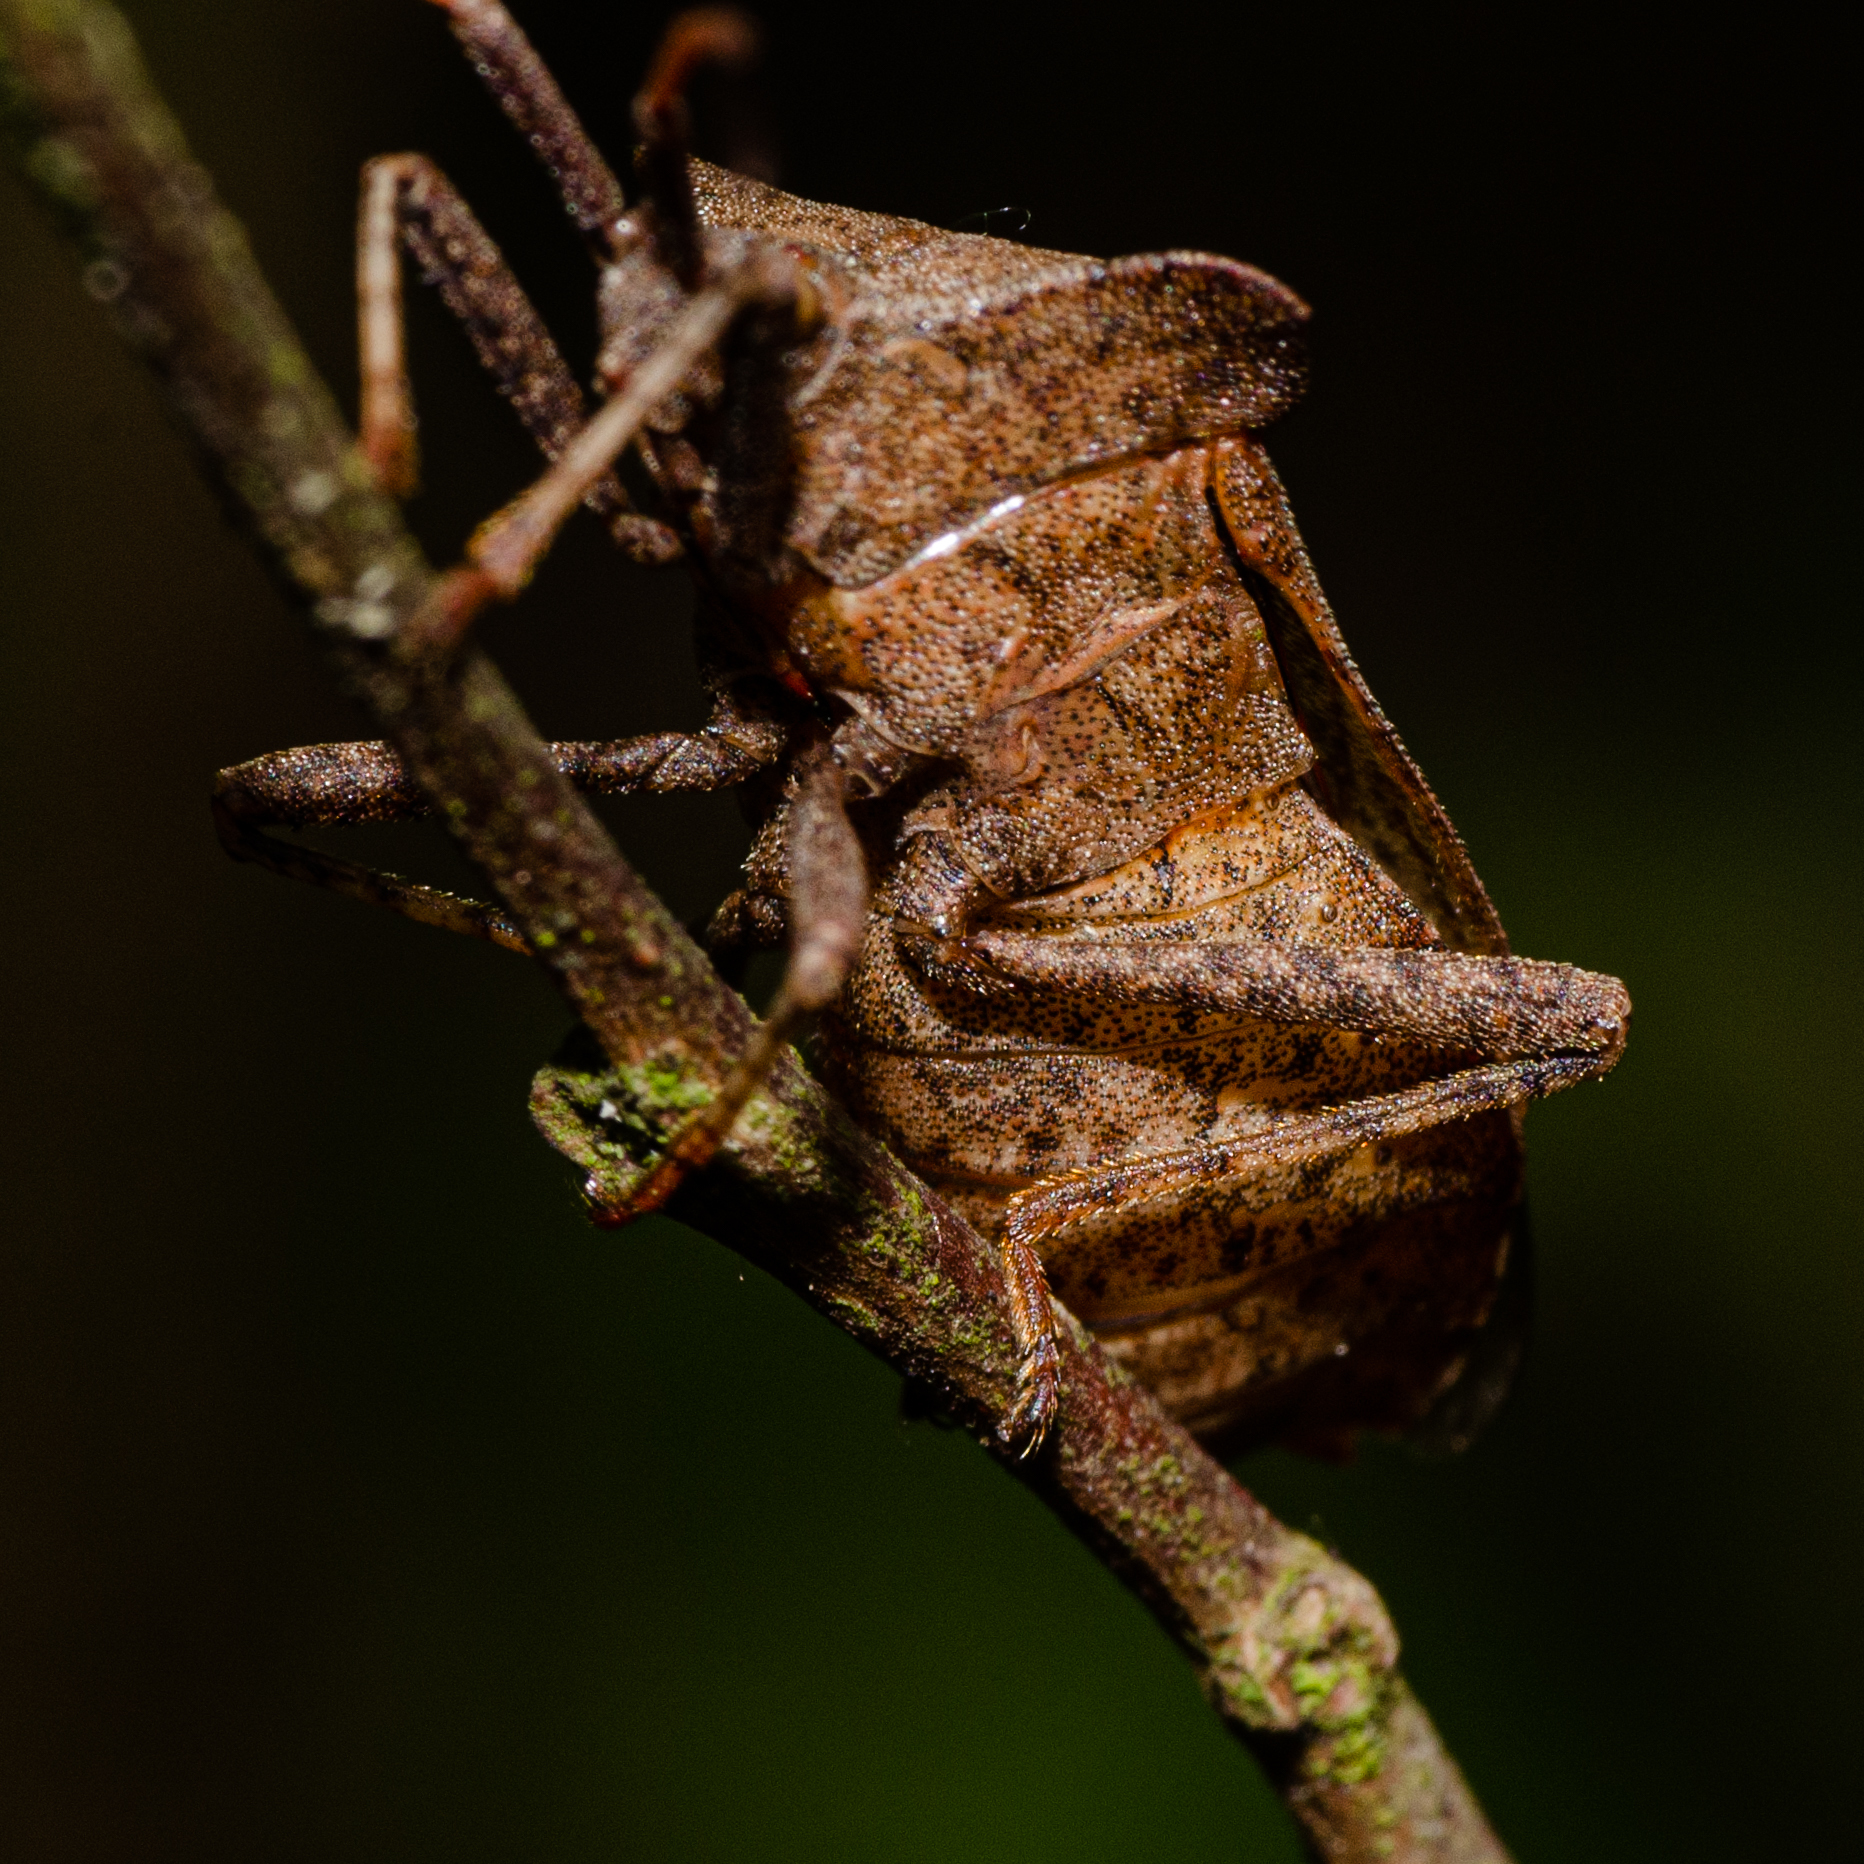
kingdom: Animalia
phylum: Arthropoda
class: Insecta
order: Hemiptera
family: Coreidae
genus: Coreus
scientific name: Coreus marginatus
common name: Dock bug
